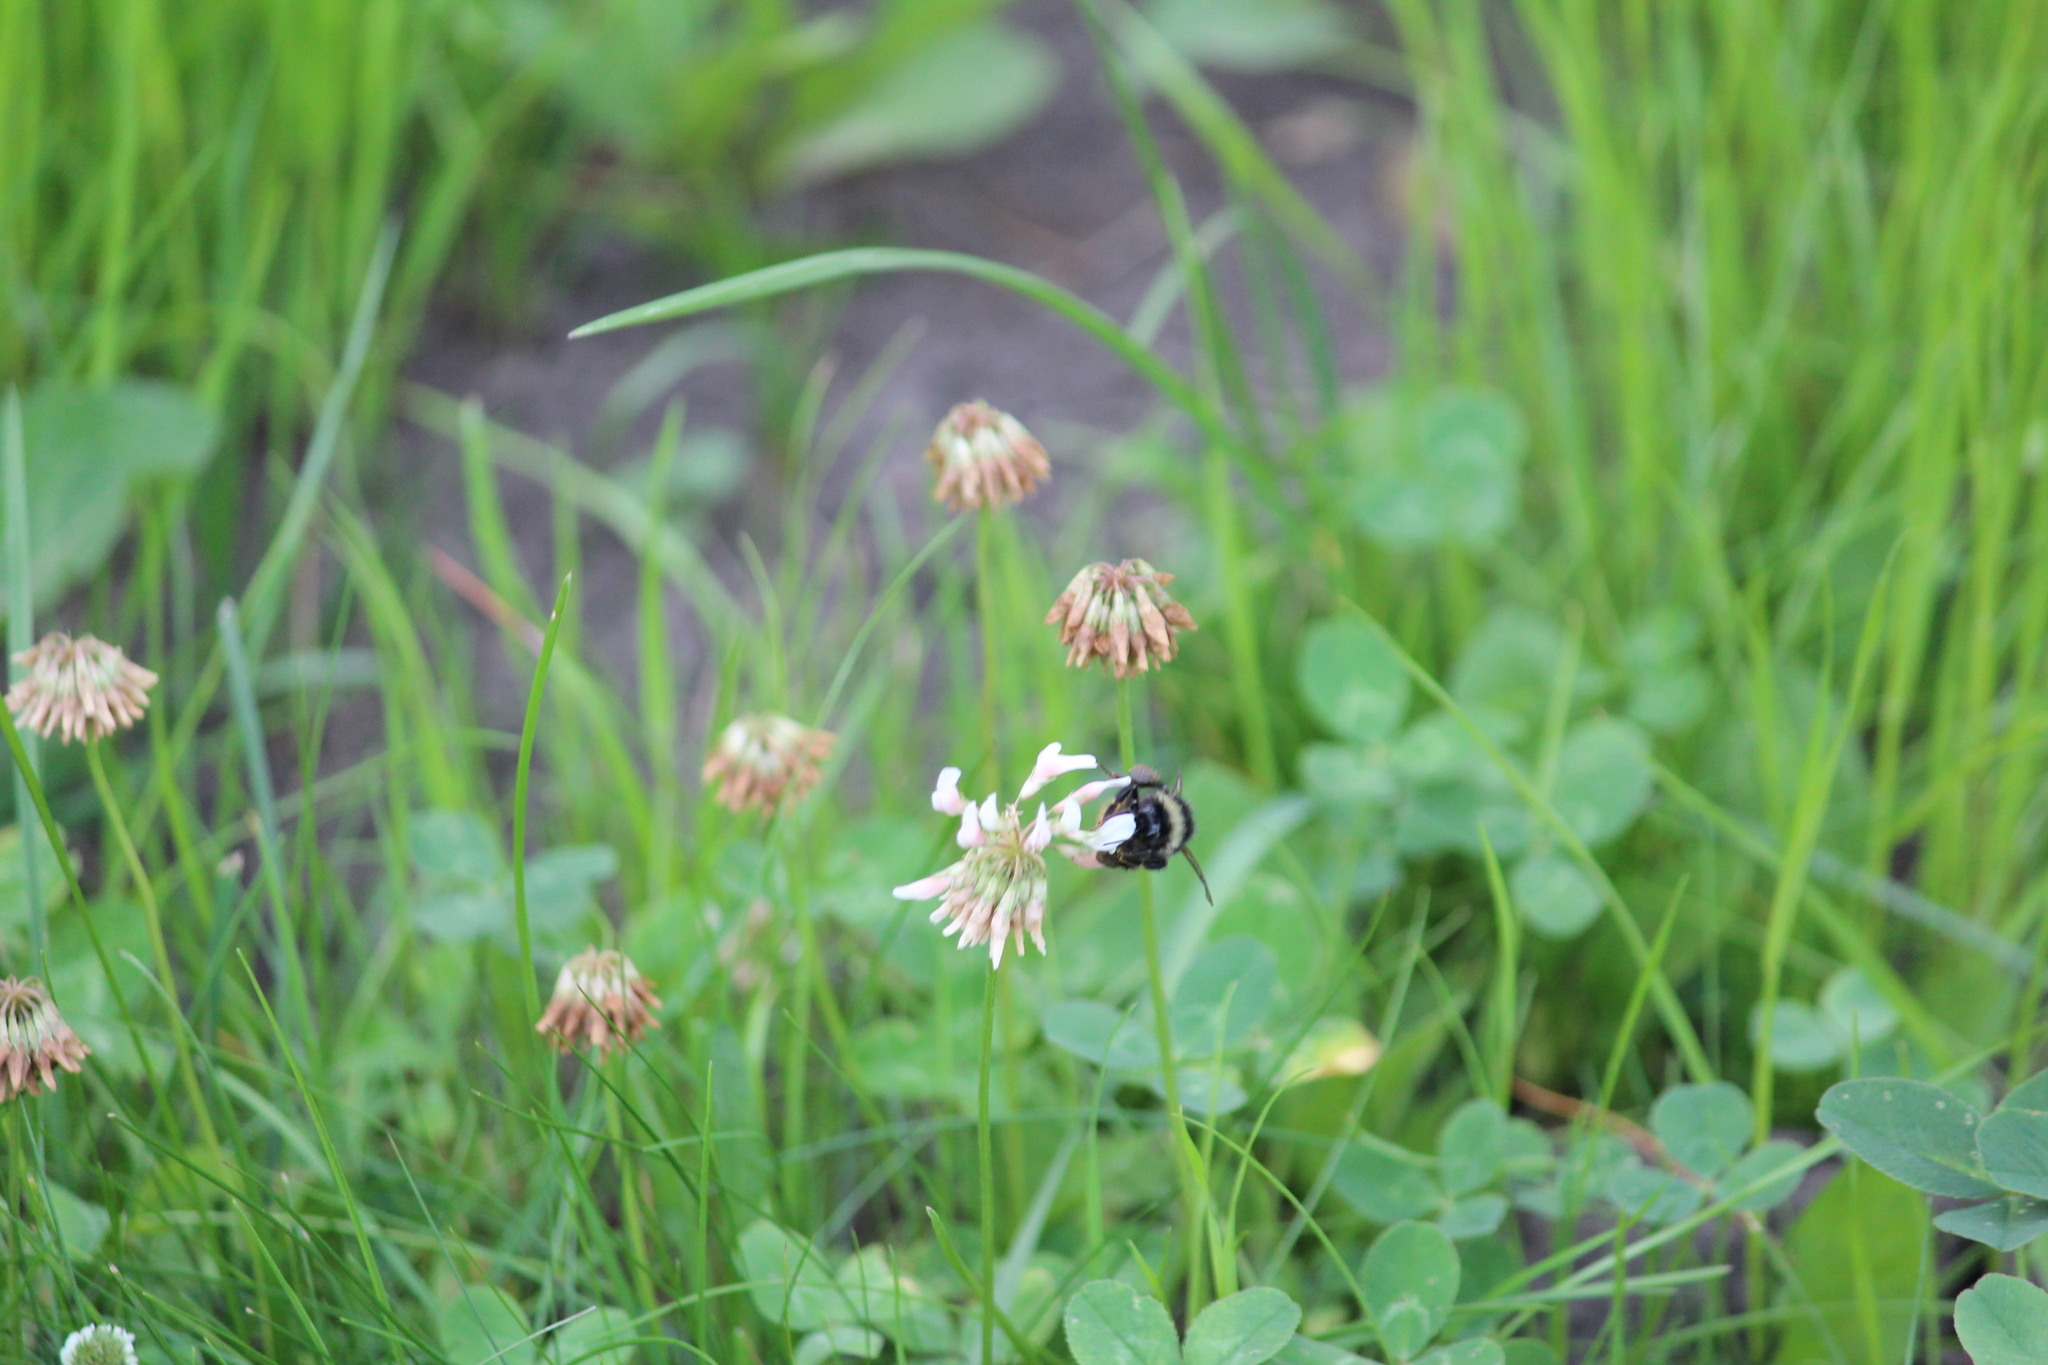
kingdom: Animalia
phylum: Arthropoda
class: Insecta
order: Hymenoptera
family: Apidae
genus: Bombus
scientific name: Bombus sichelii
